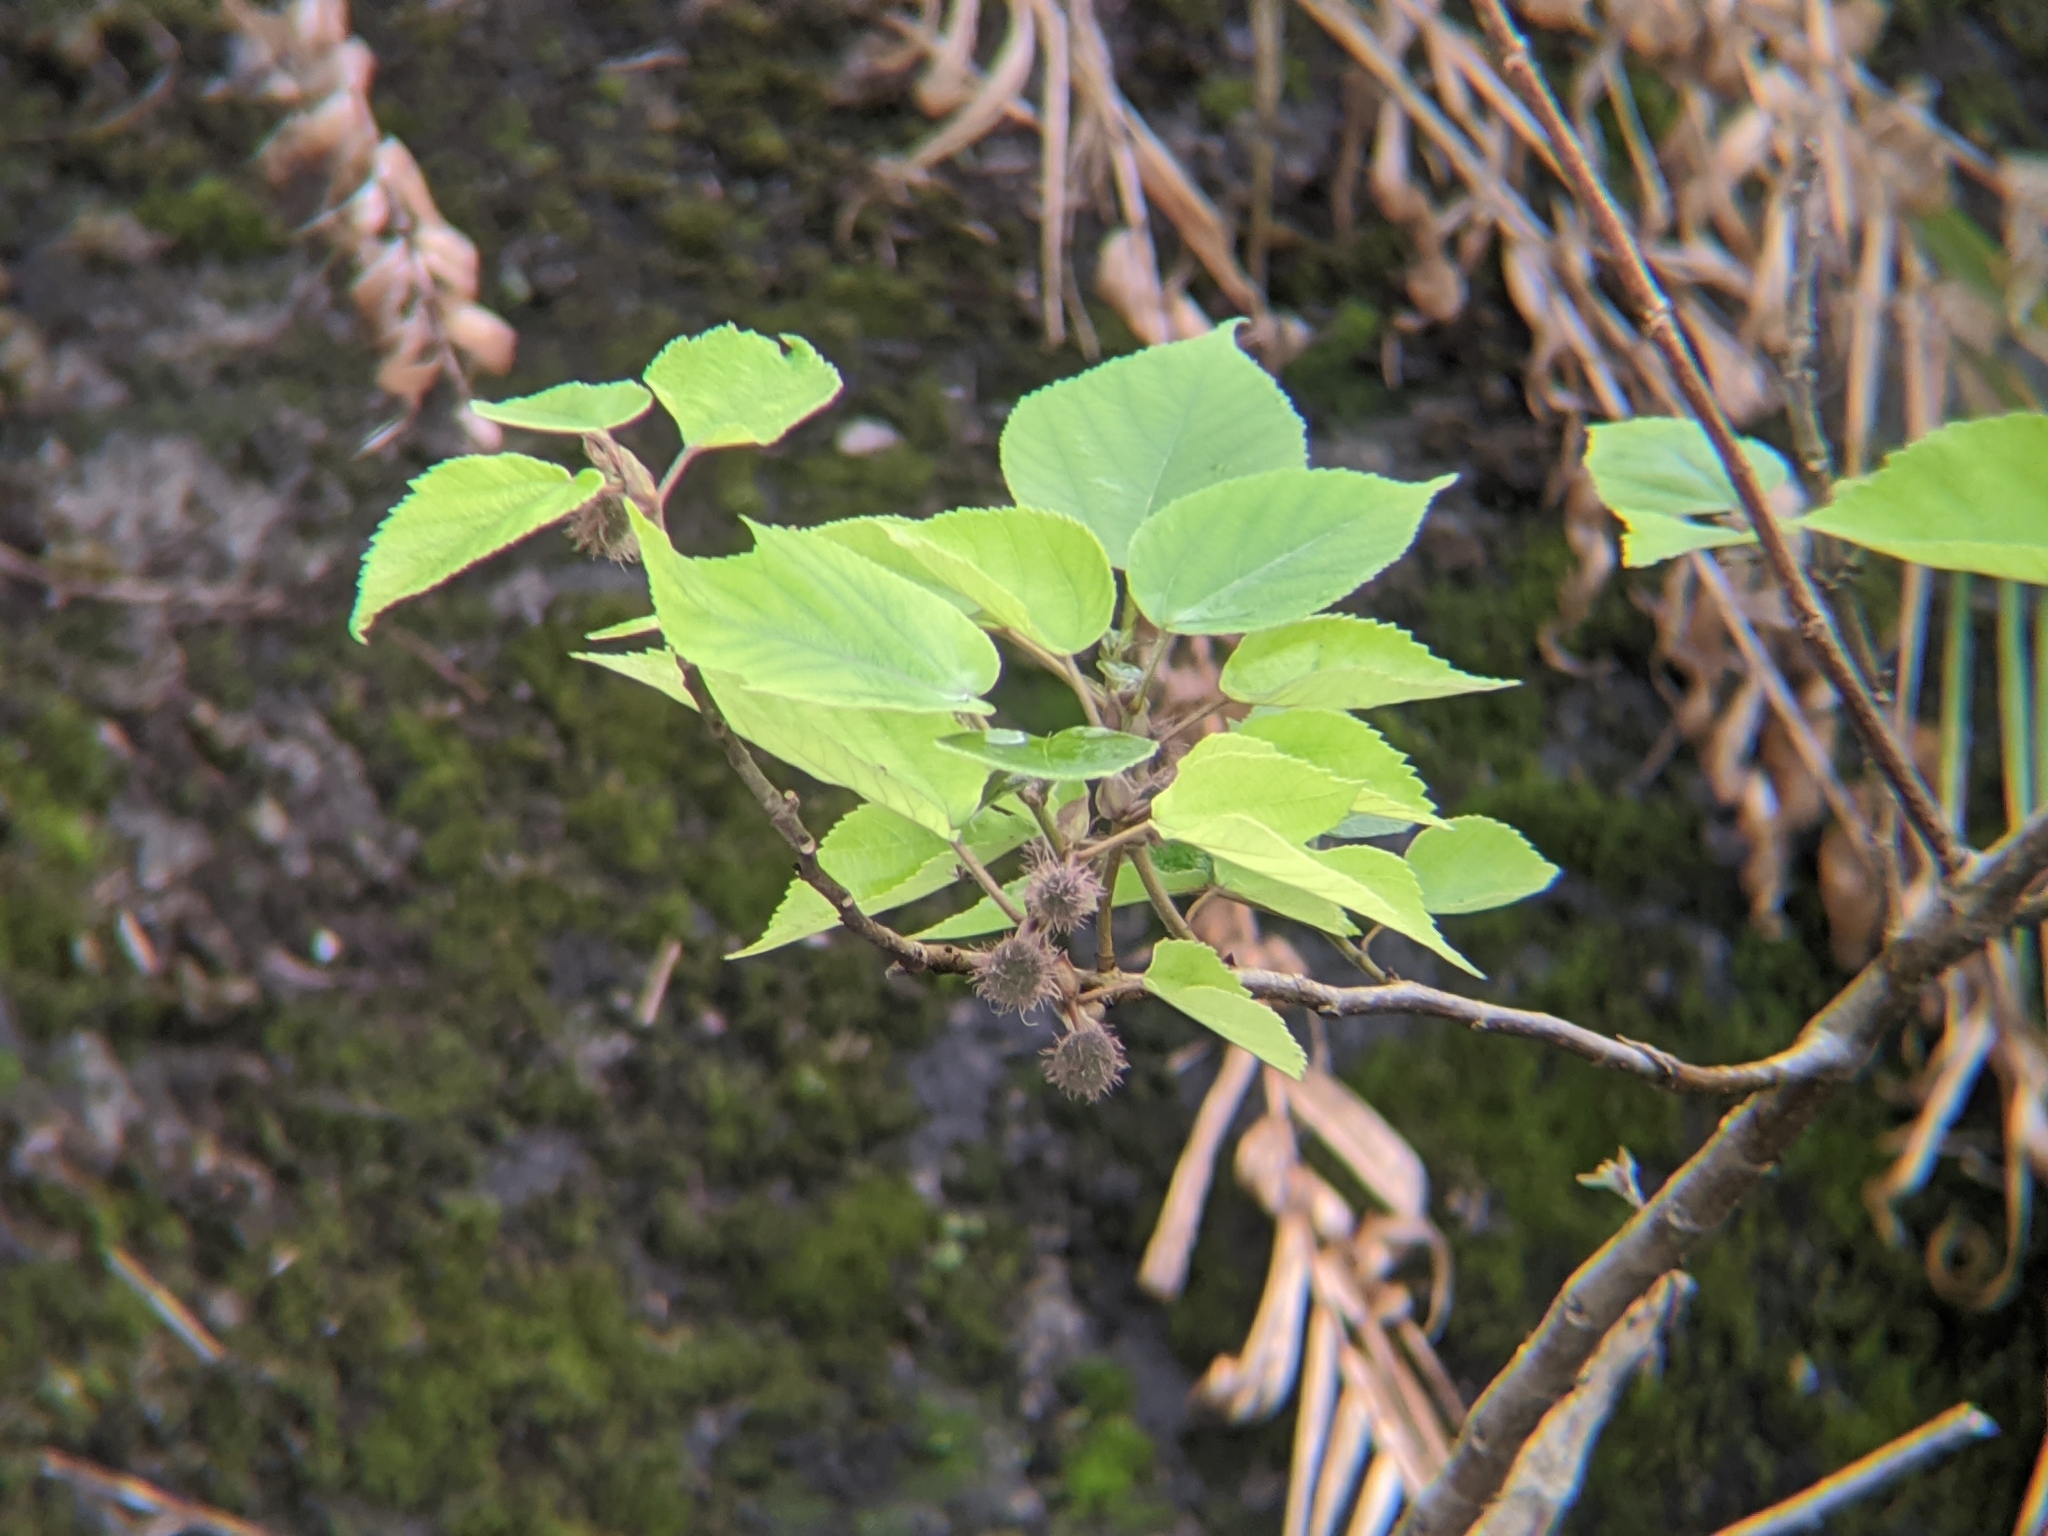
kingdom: Plantae
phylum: Tracheophyta
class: Magnoliopsida
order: Rosales
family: Moraceae
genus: Broussonetia
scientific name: Broussonetia papyrifera
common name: Paper mulberry
